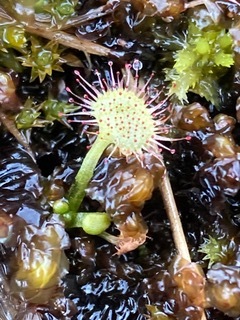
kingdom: Plantae
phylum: Tracheophyta
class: Magnoliopsida
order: Caryophyllales
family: Droseraceae
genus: Drosera
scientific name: Drosera rotundifolia
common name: Round-leaved sundew
